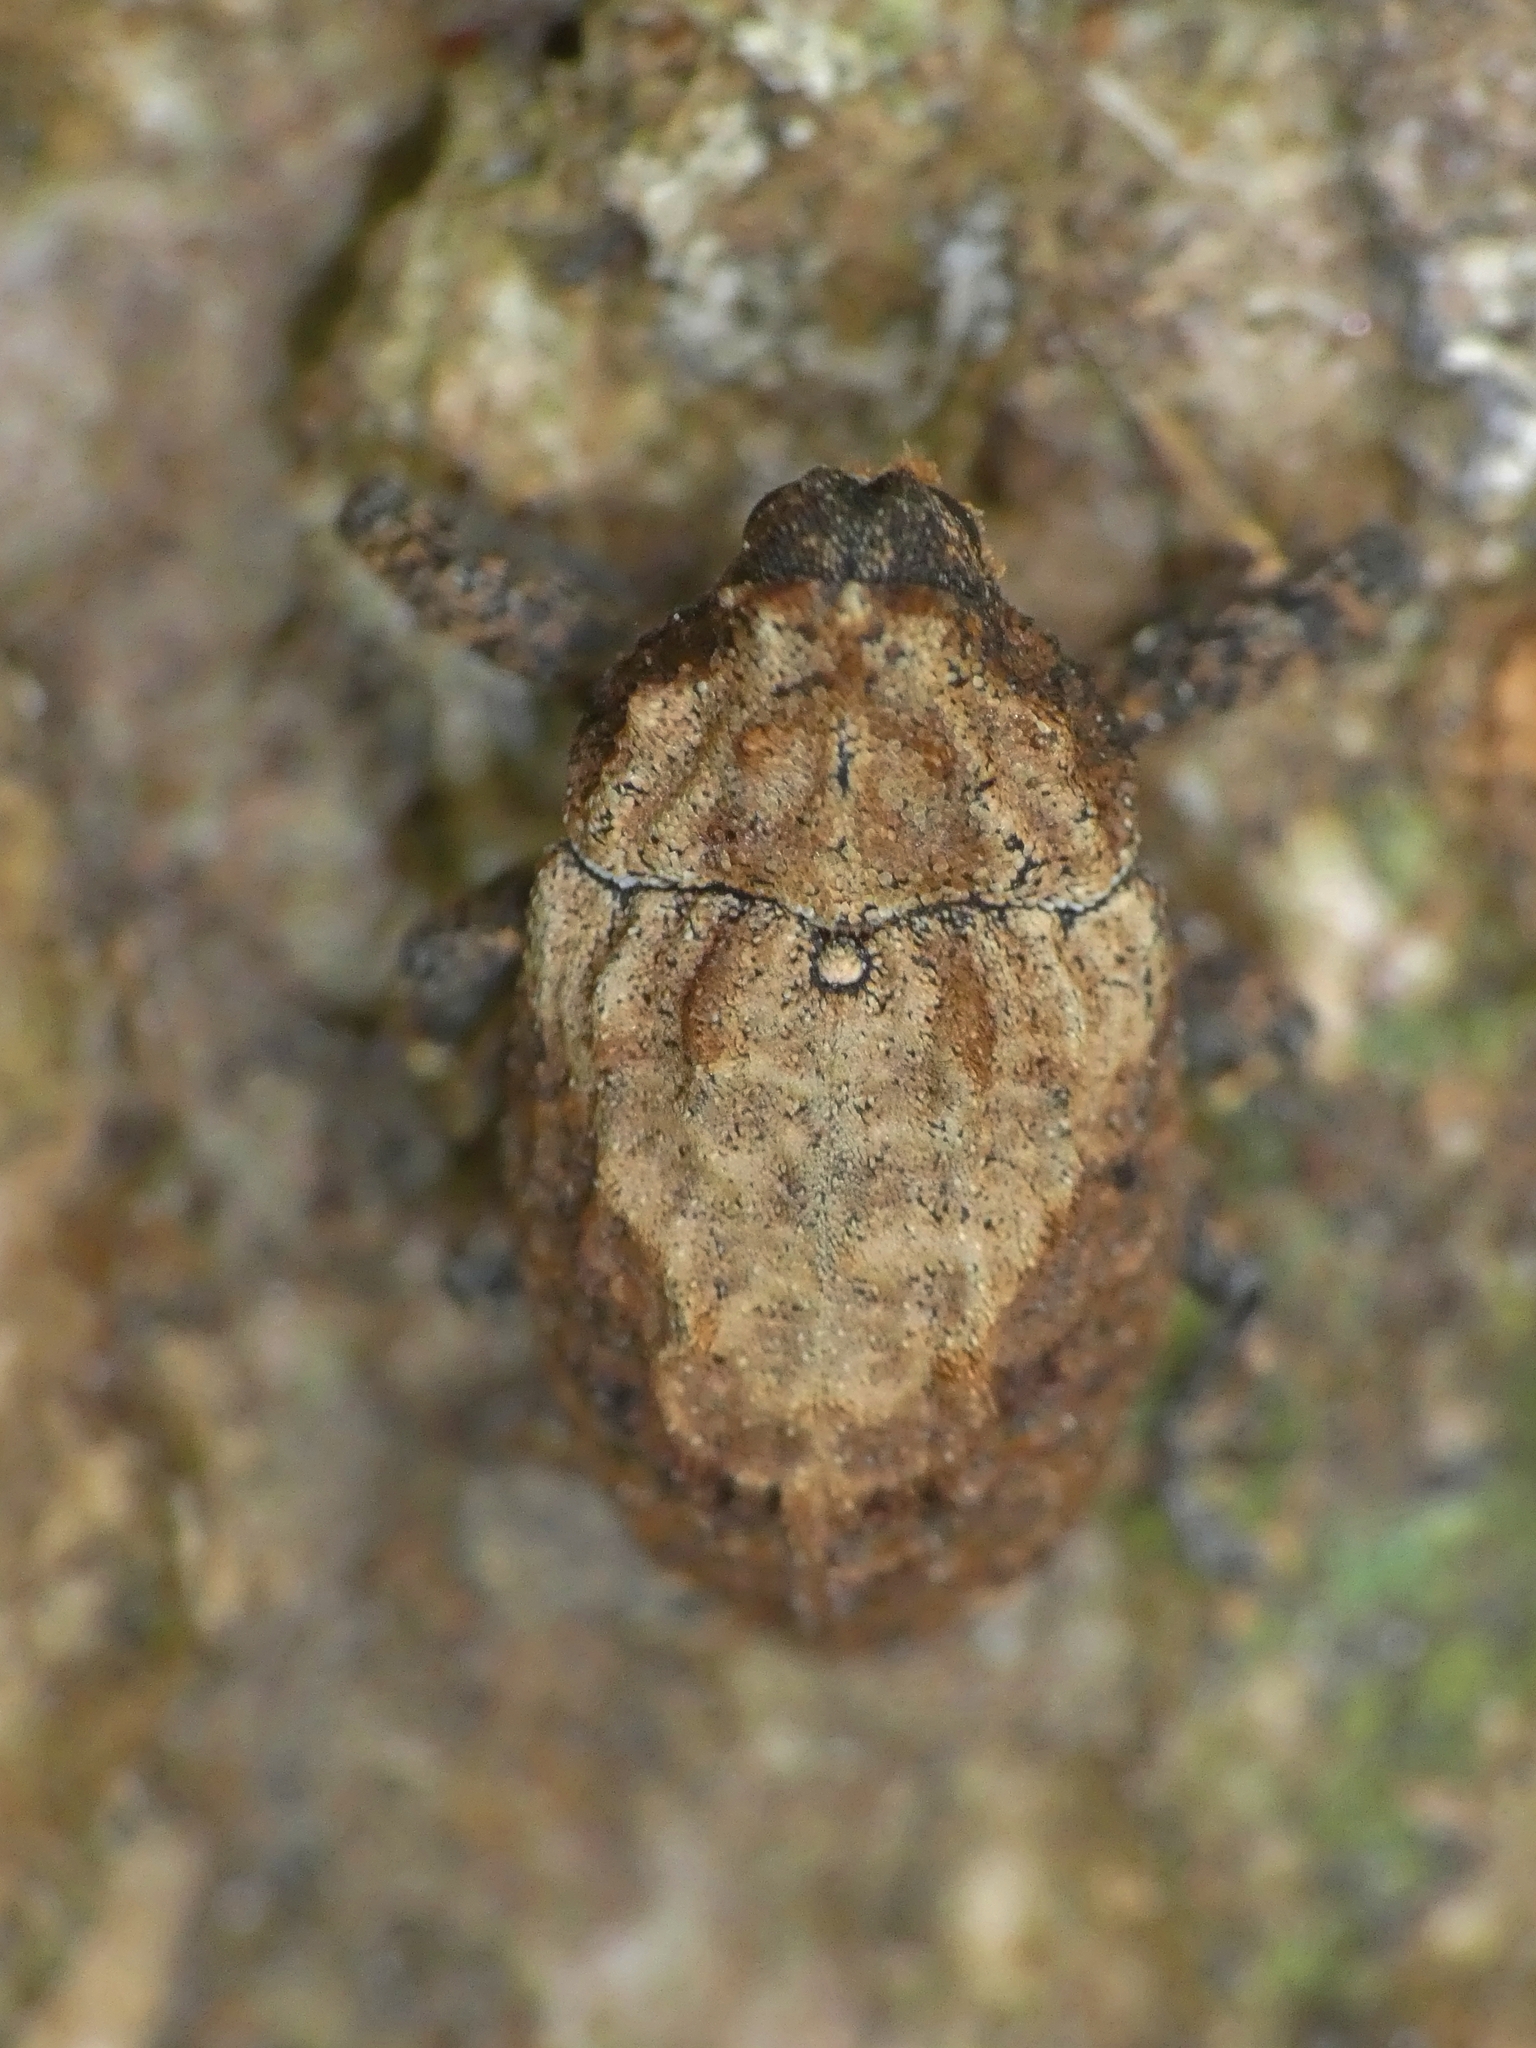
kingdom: Animalia
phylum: Arthropoda
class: Insecta
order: Coleoptera
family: Curculionidae
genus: Blepiarda
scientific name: Blepiarda undulata
